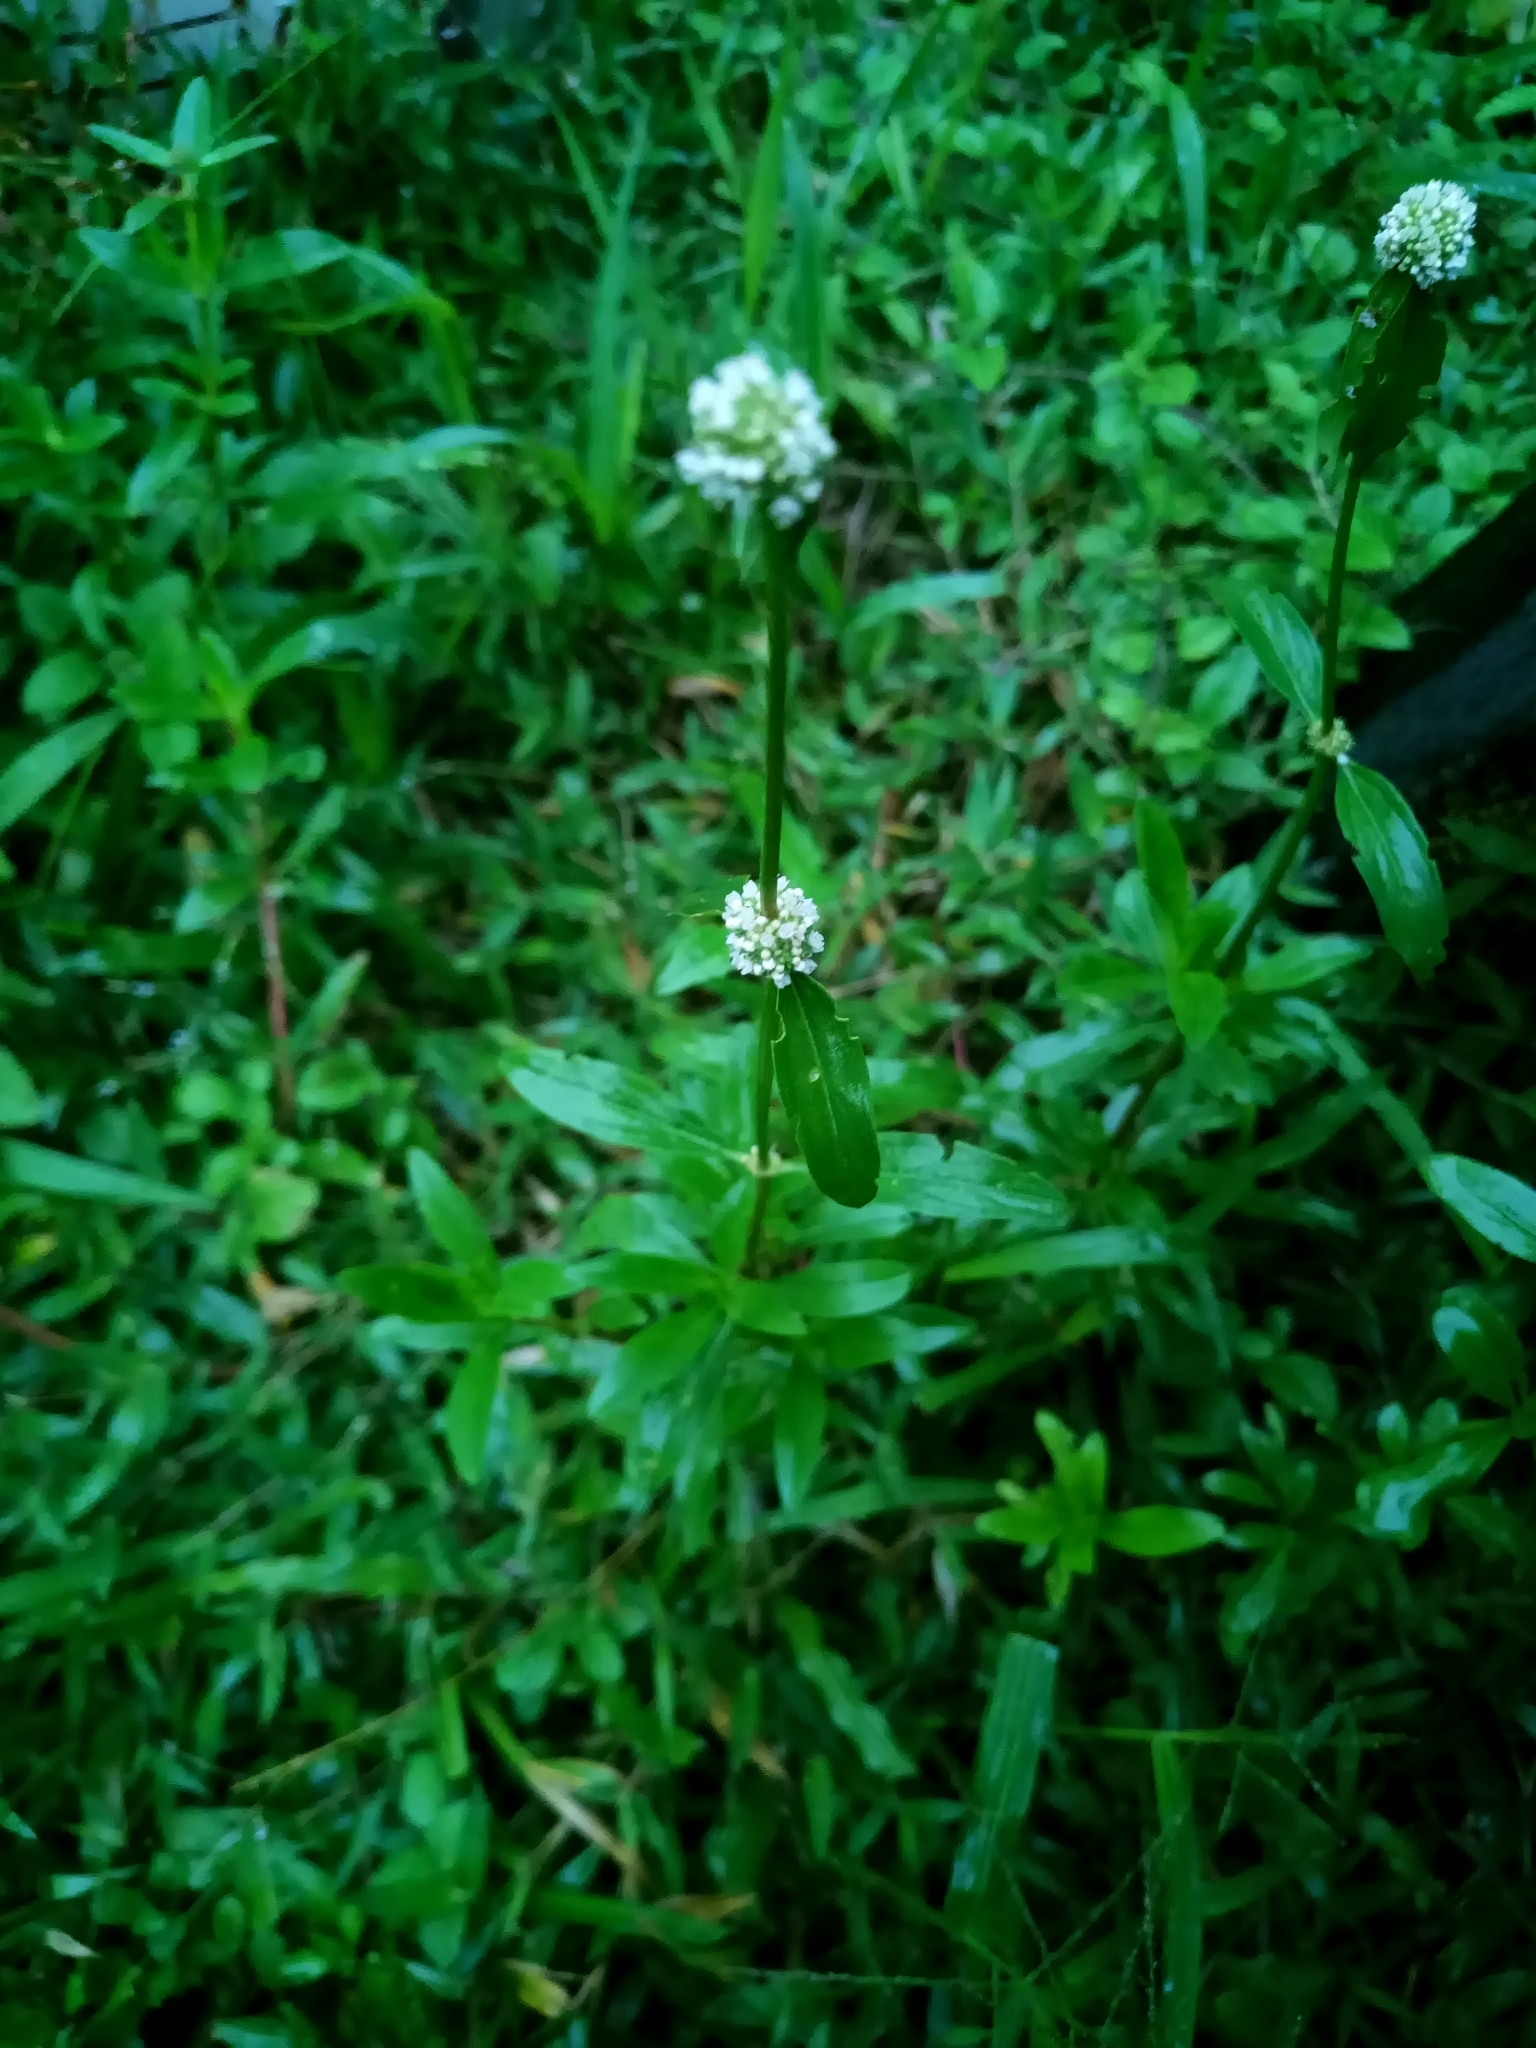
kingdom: Plantae
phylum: Tracheophyta
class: Magnoliopsida
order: Gentianales
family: Rubiaceae
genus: Spermacoce
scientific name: Spermacoce verticillata
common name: Shrubby false buttonweed
